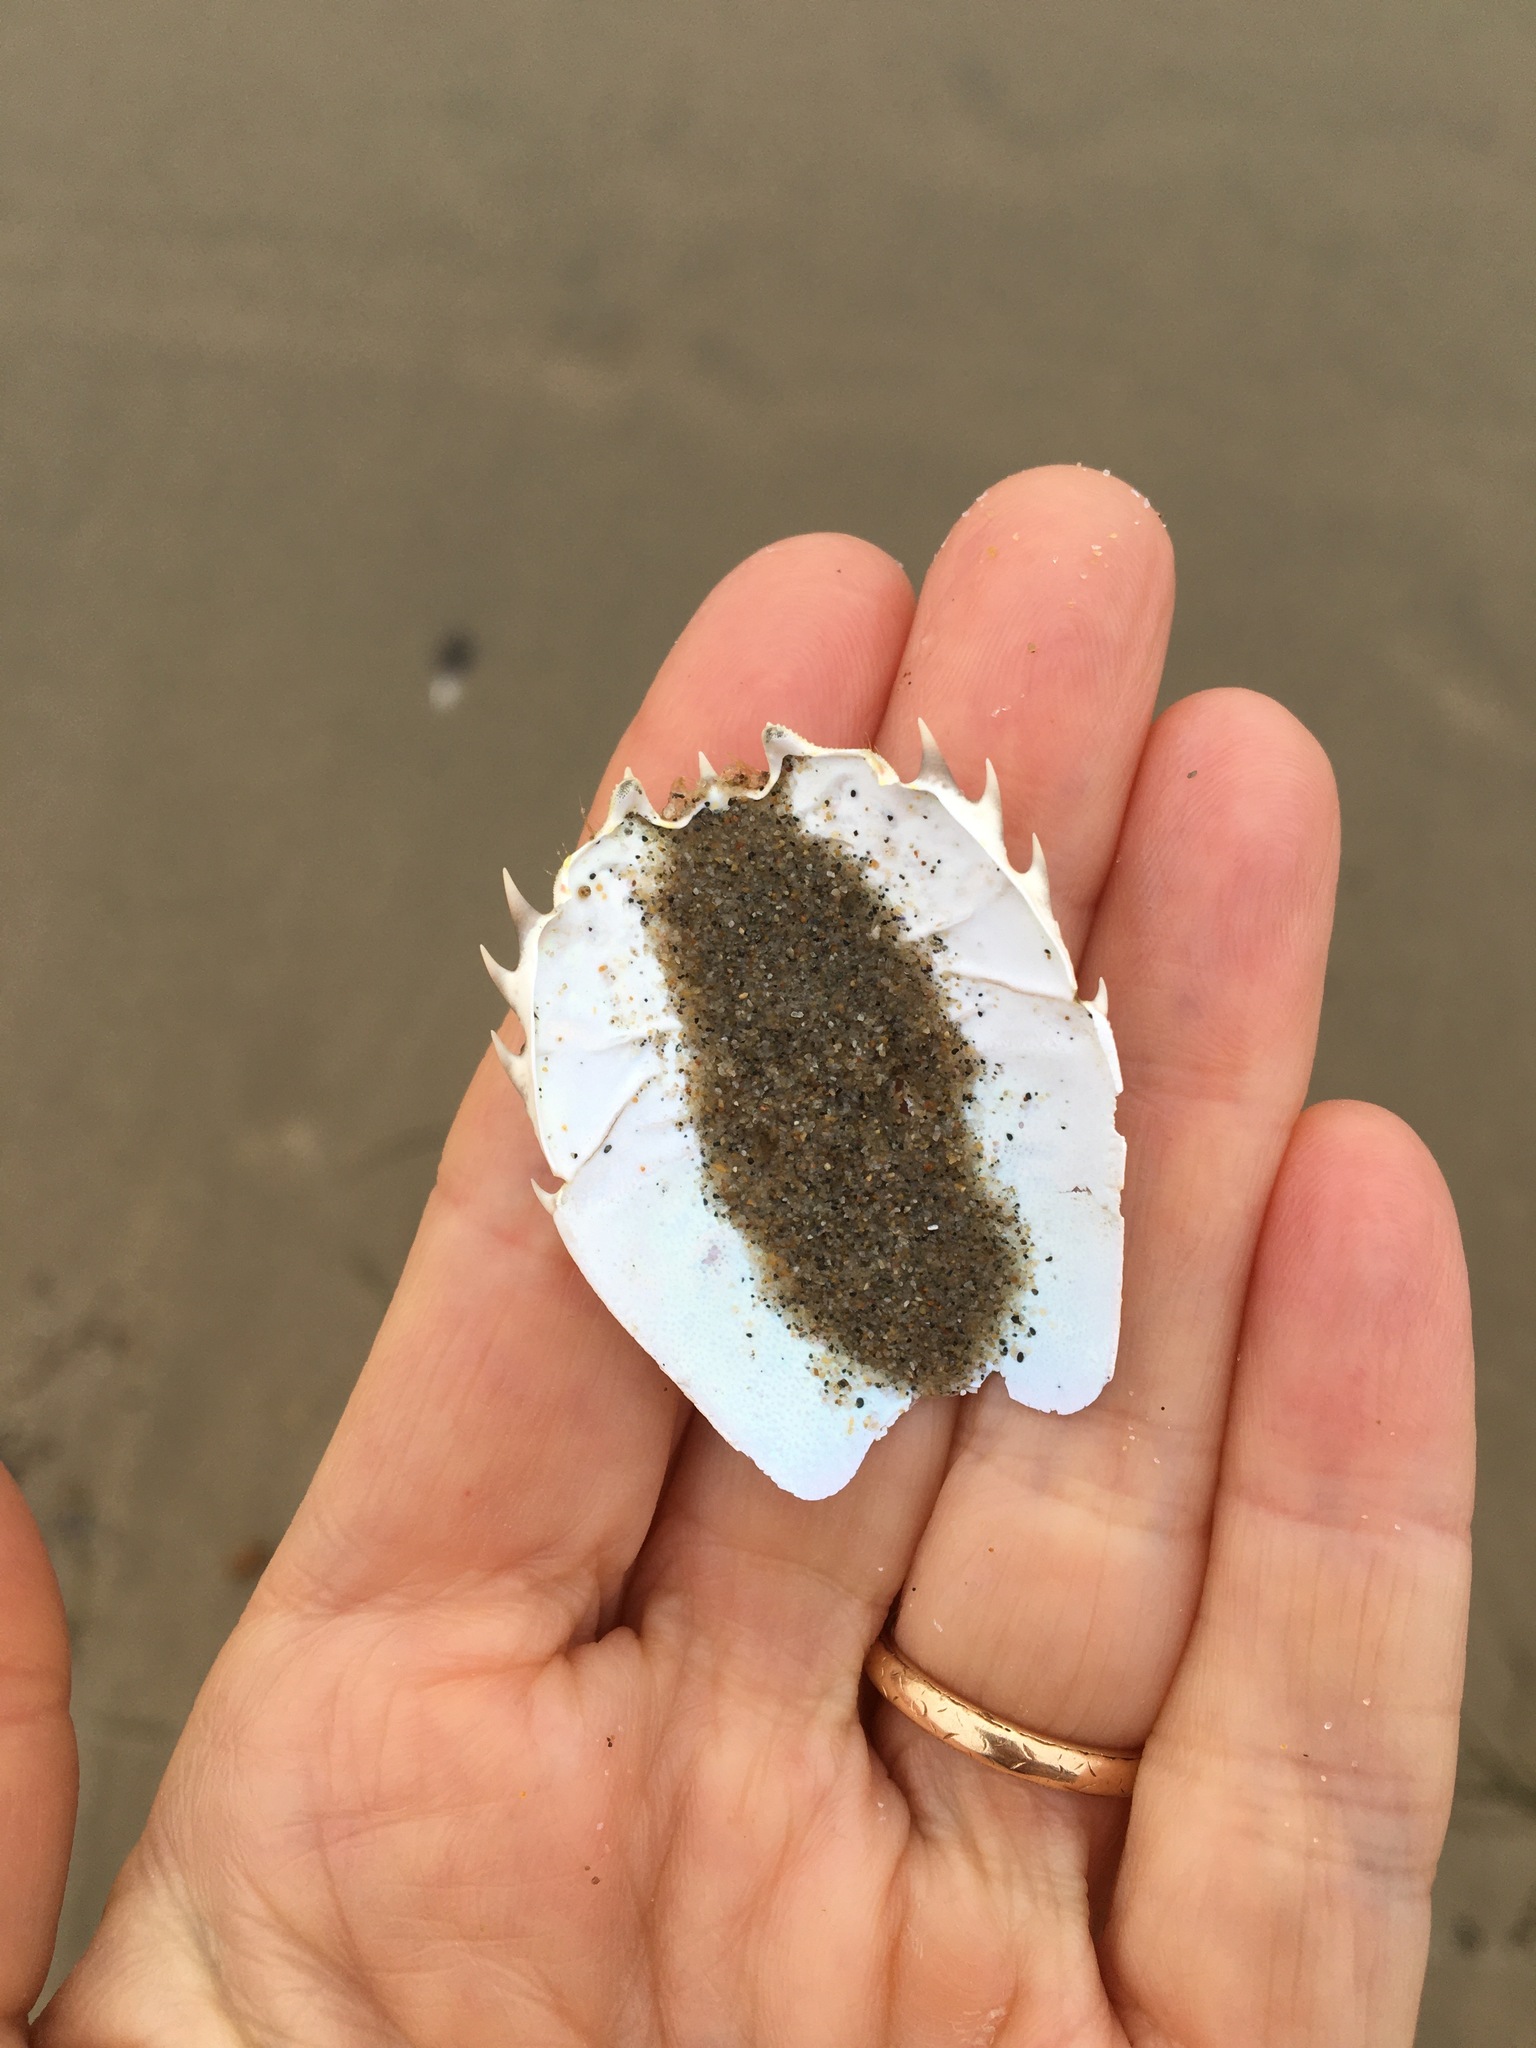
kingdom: Animalia
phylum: Arthropoda
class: Malacostraca
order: Decapoda
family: Blepharipodidae
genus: Blepharipoda
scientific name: Blepharipoda occidentalis
